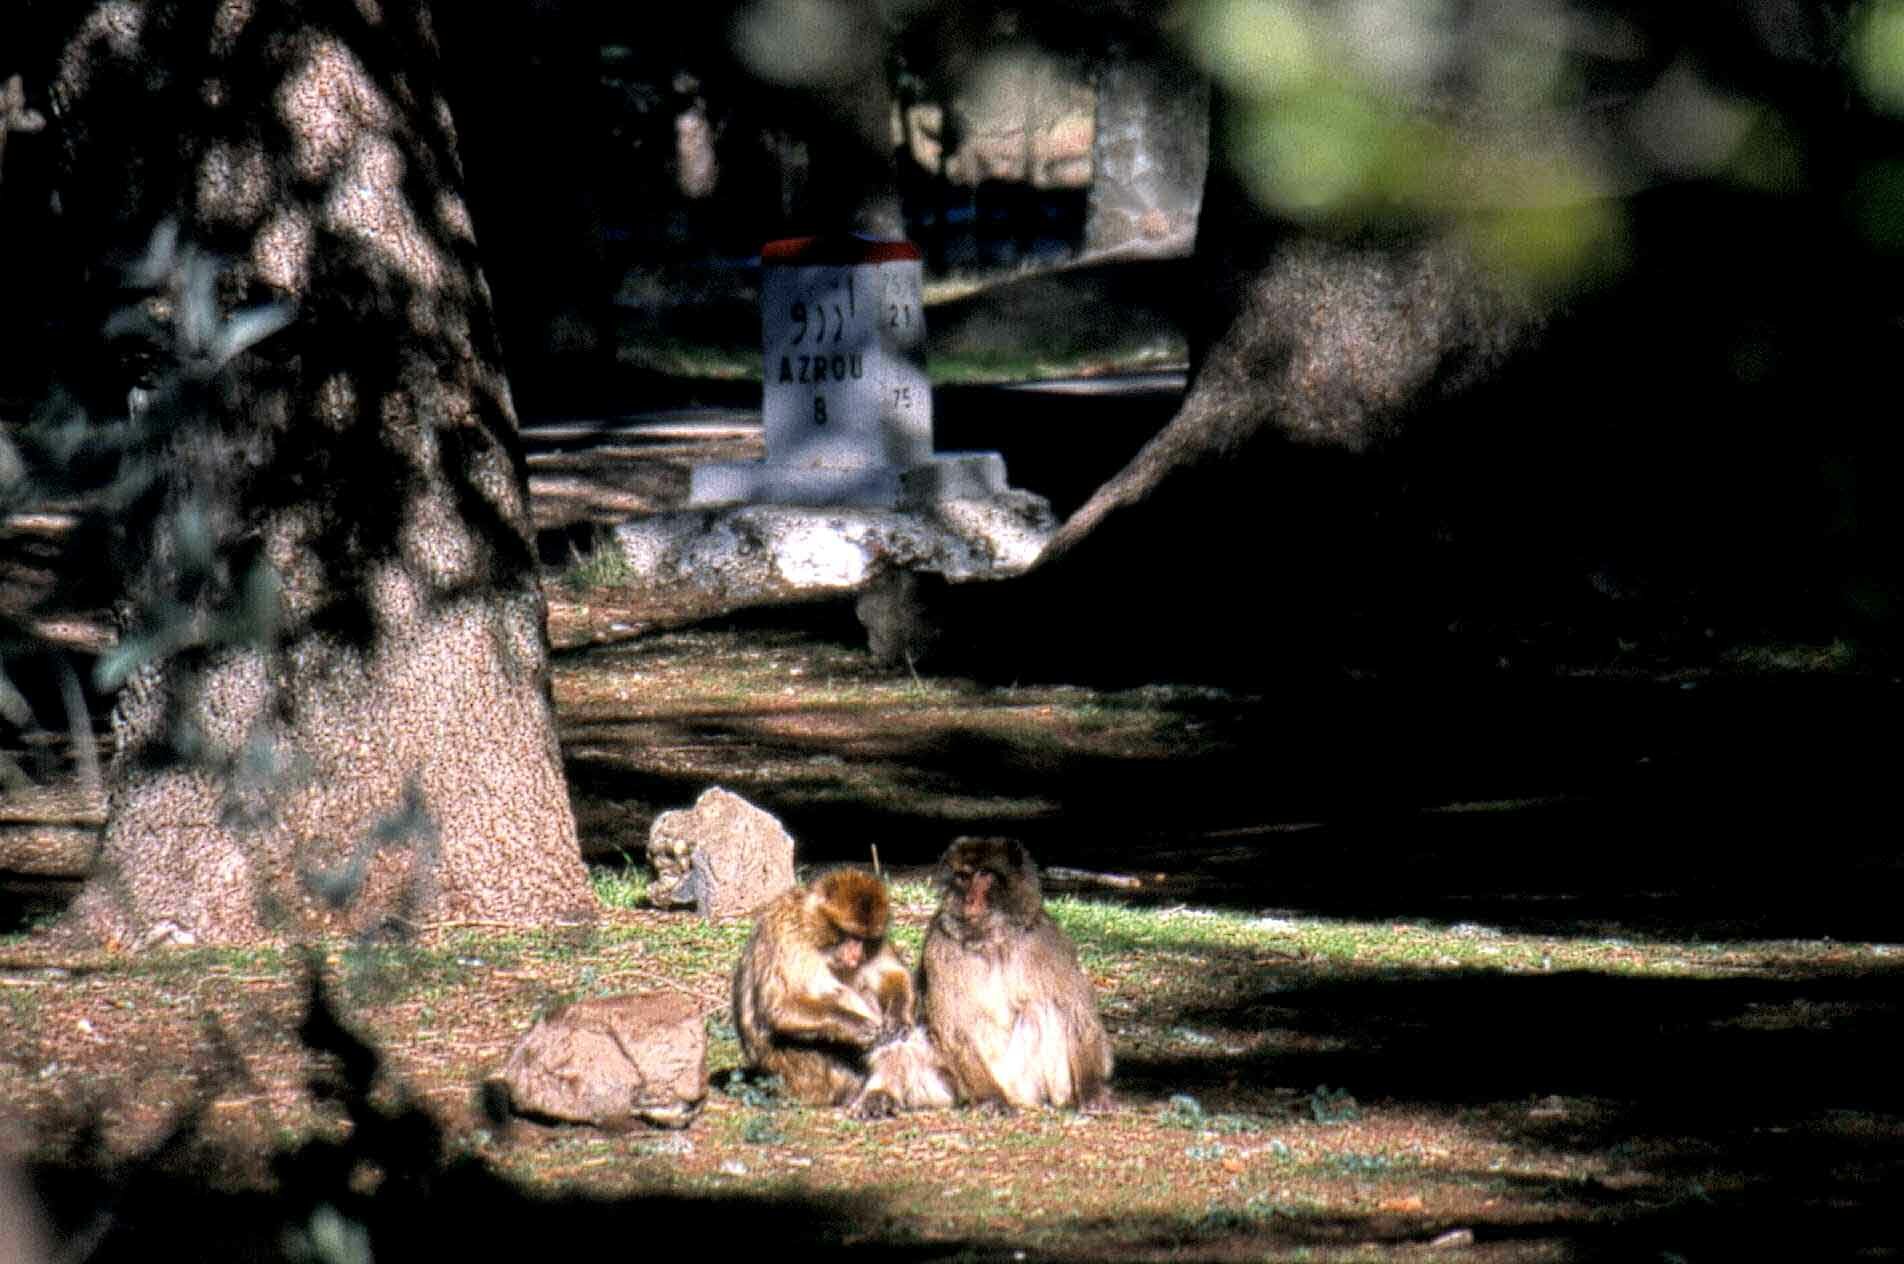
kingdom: Animalia
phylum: Chordata
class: Mammalia
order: Primates
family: Cercopithecidae
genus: Macaca
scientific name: Macaca sylvanus
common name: Barbary macaque
